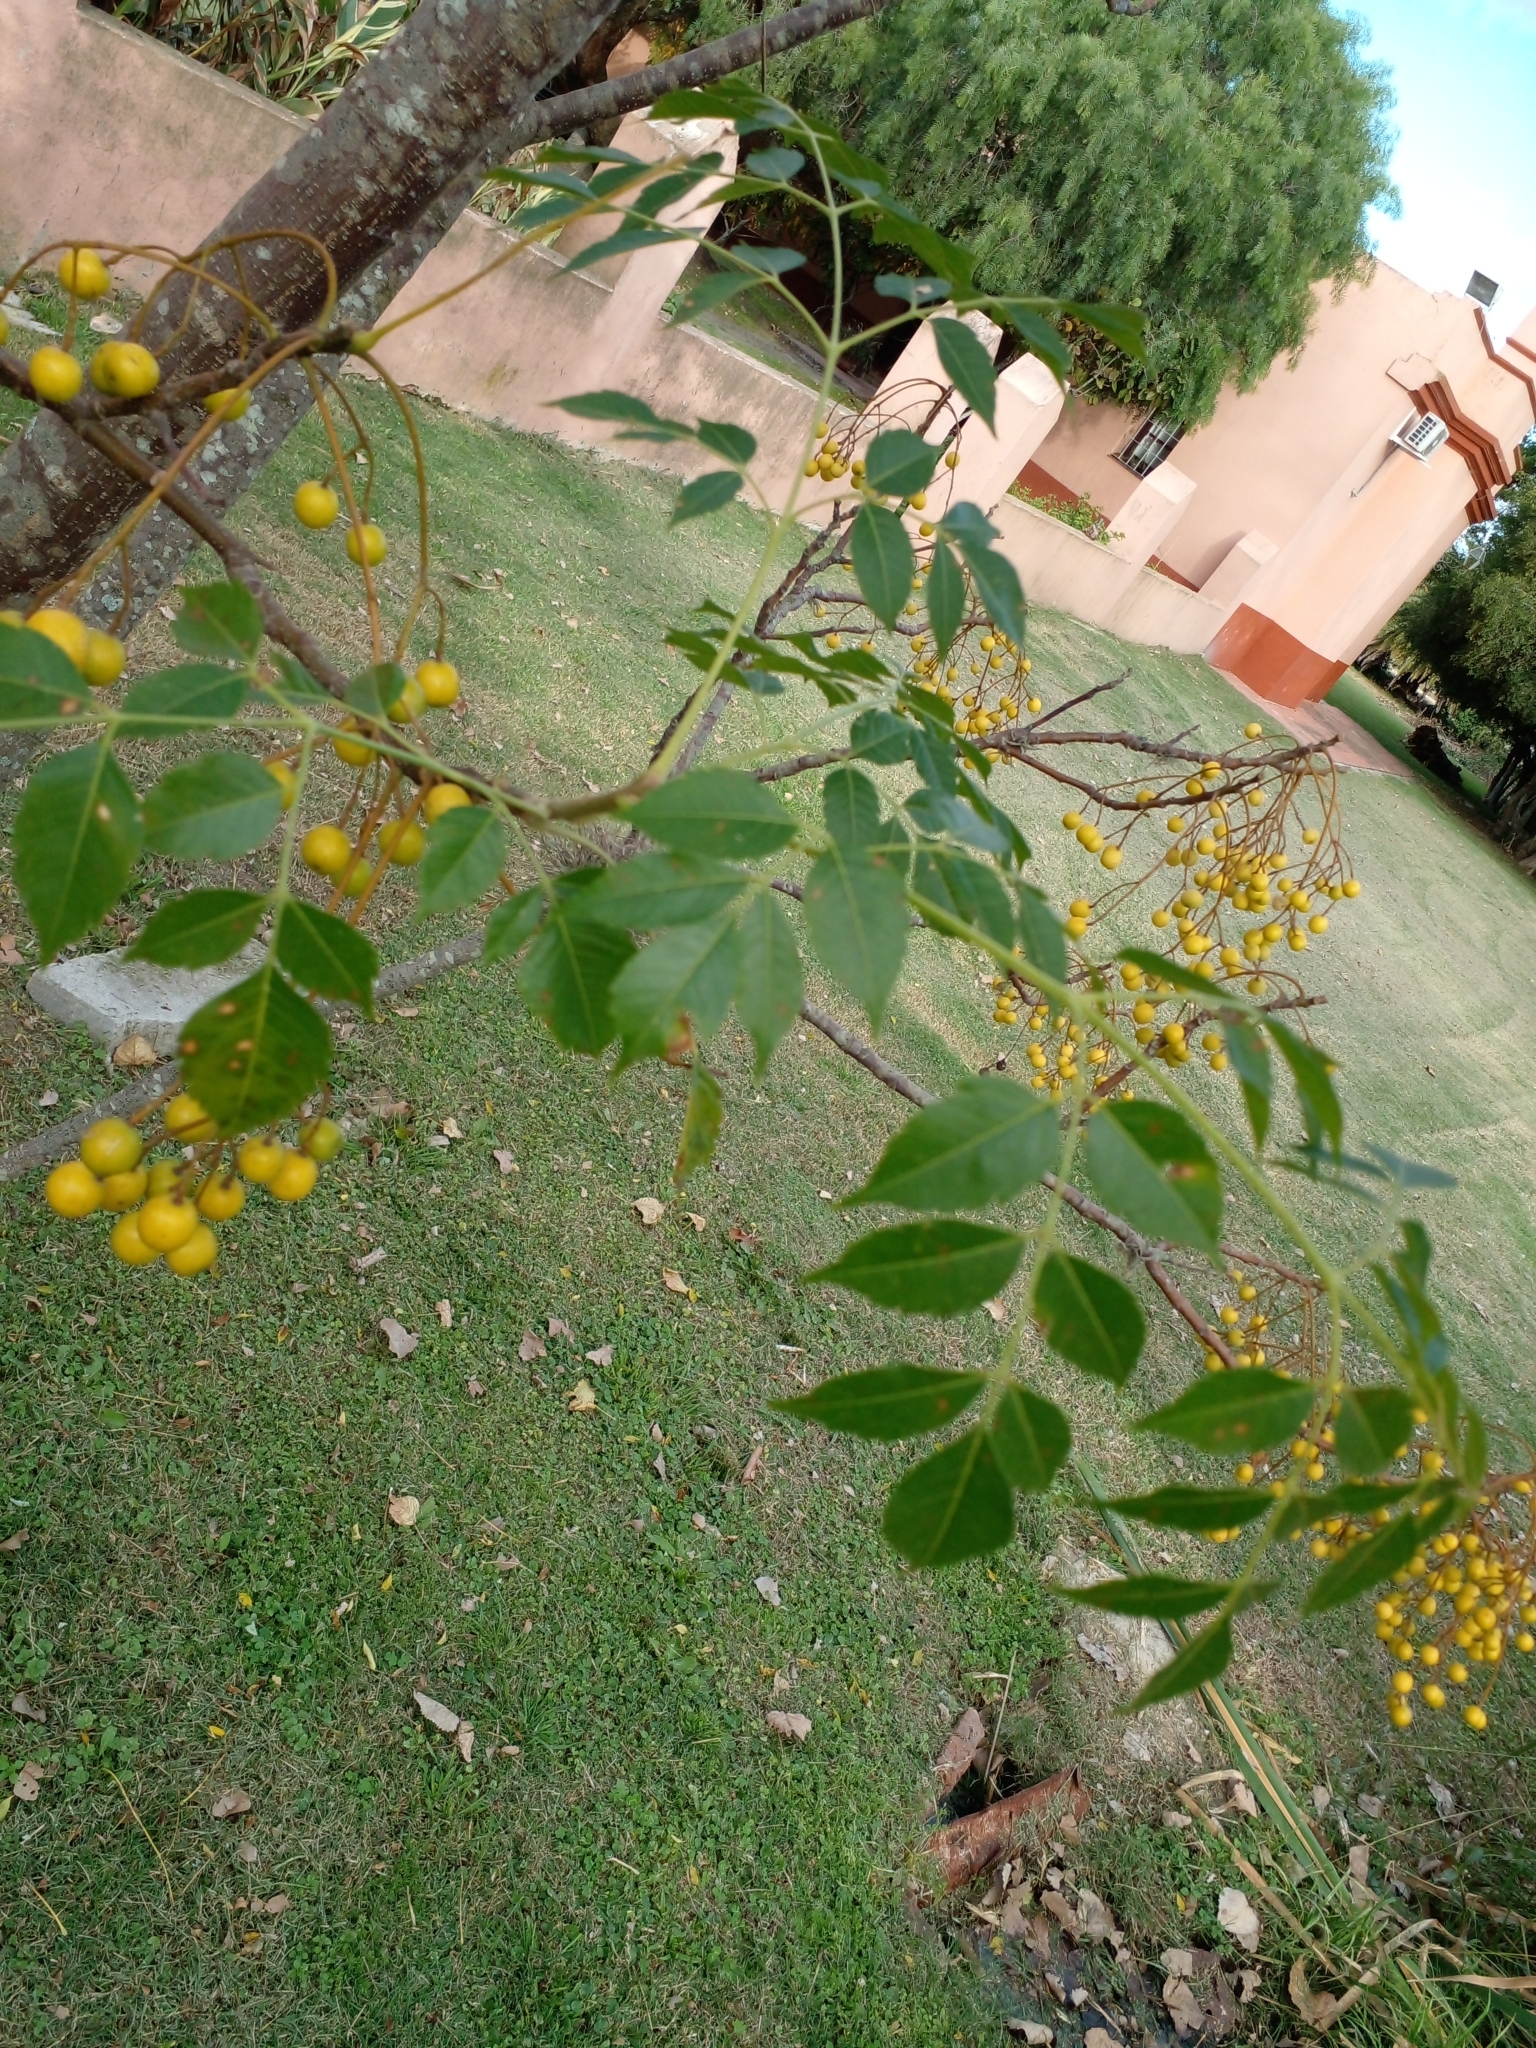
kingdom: Plantae
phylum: Tracheophyta
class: Magnoliopsida
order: Sapindales
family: Meliaceae
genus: Melia
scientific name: Melia azedarach
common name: Chinaberrytree
